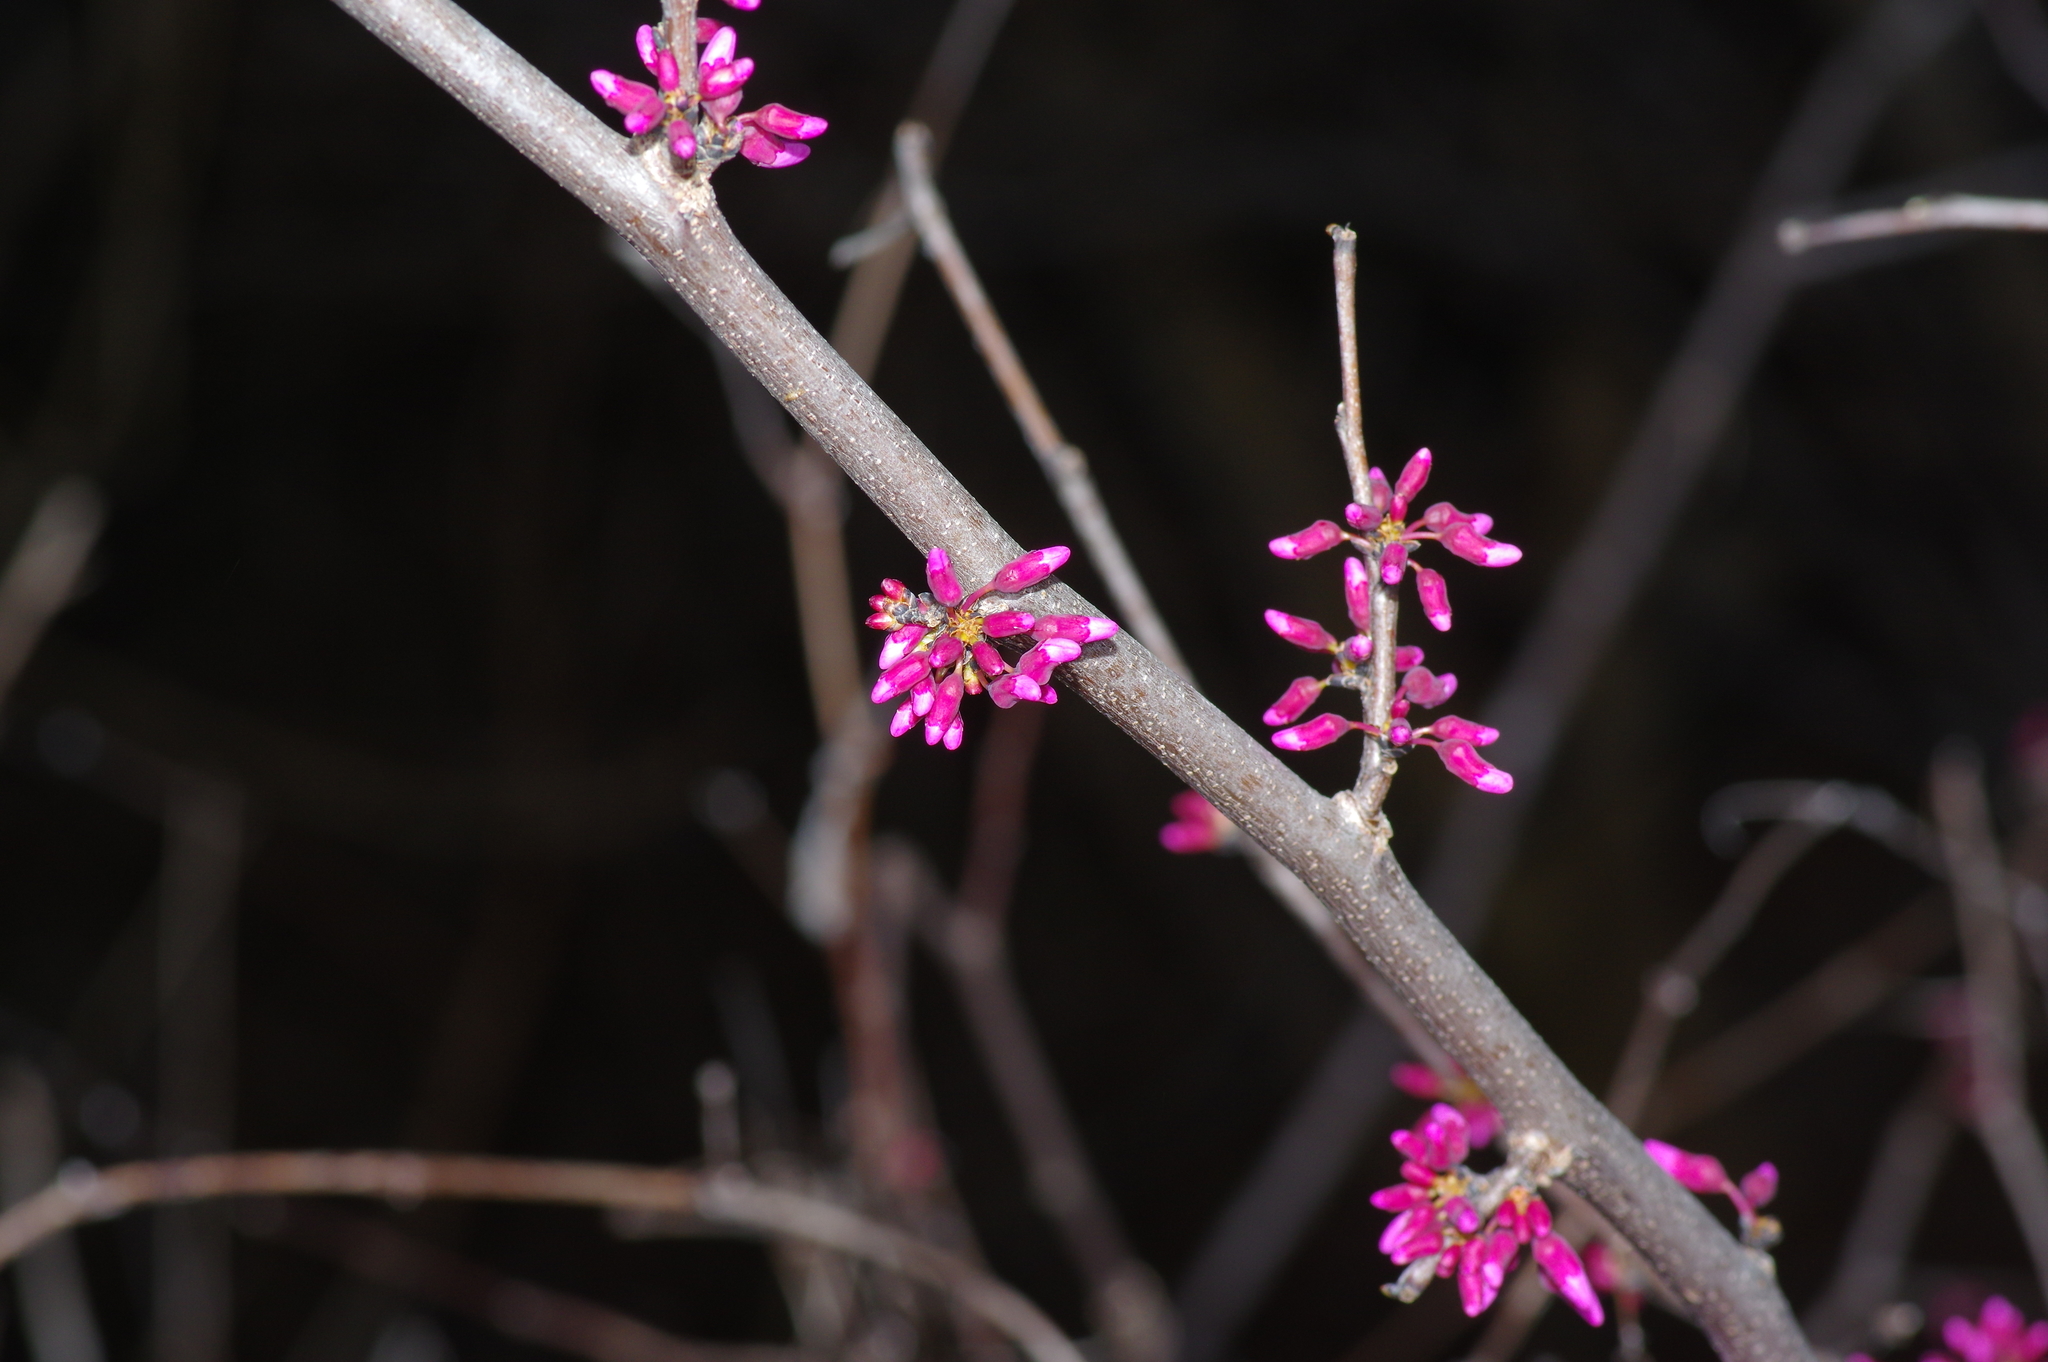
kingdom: Plantae
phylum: Tracheophyta
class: Magnoliopsida
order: Fabales
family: Fabaceae
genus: Cercis
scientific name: Cercis canadensis
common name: Eastern redbud
